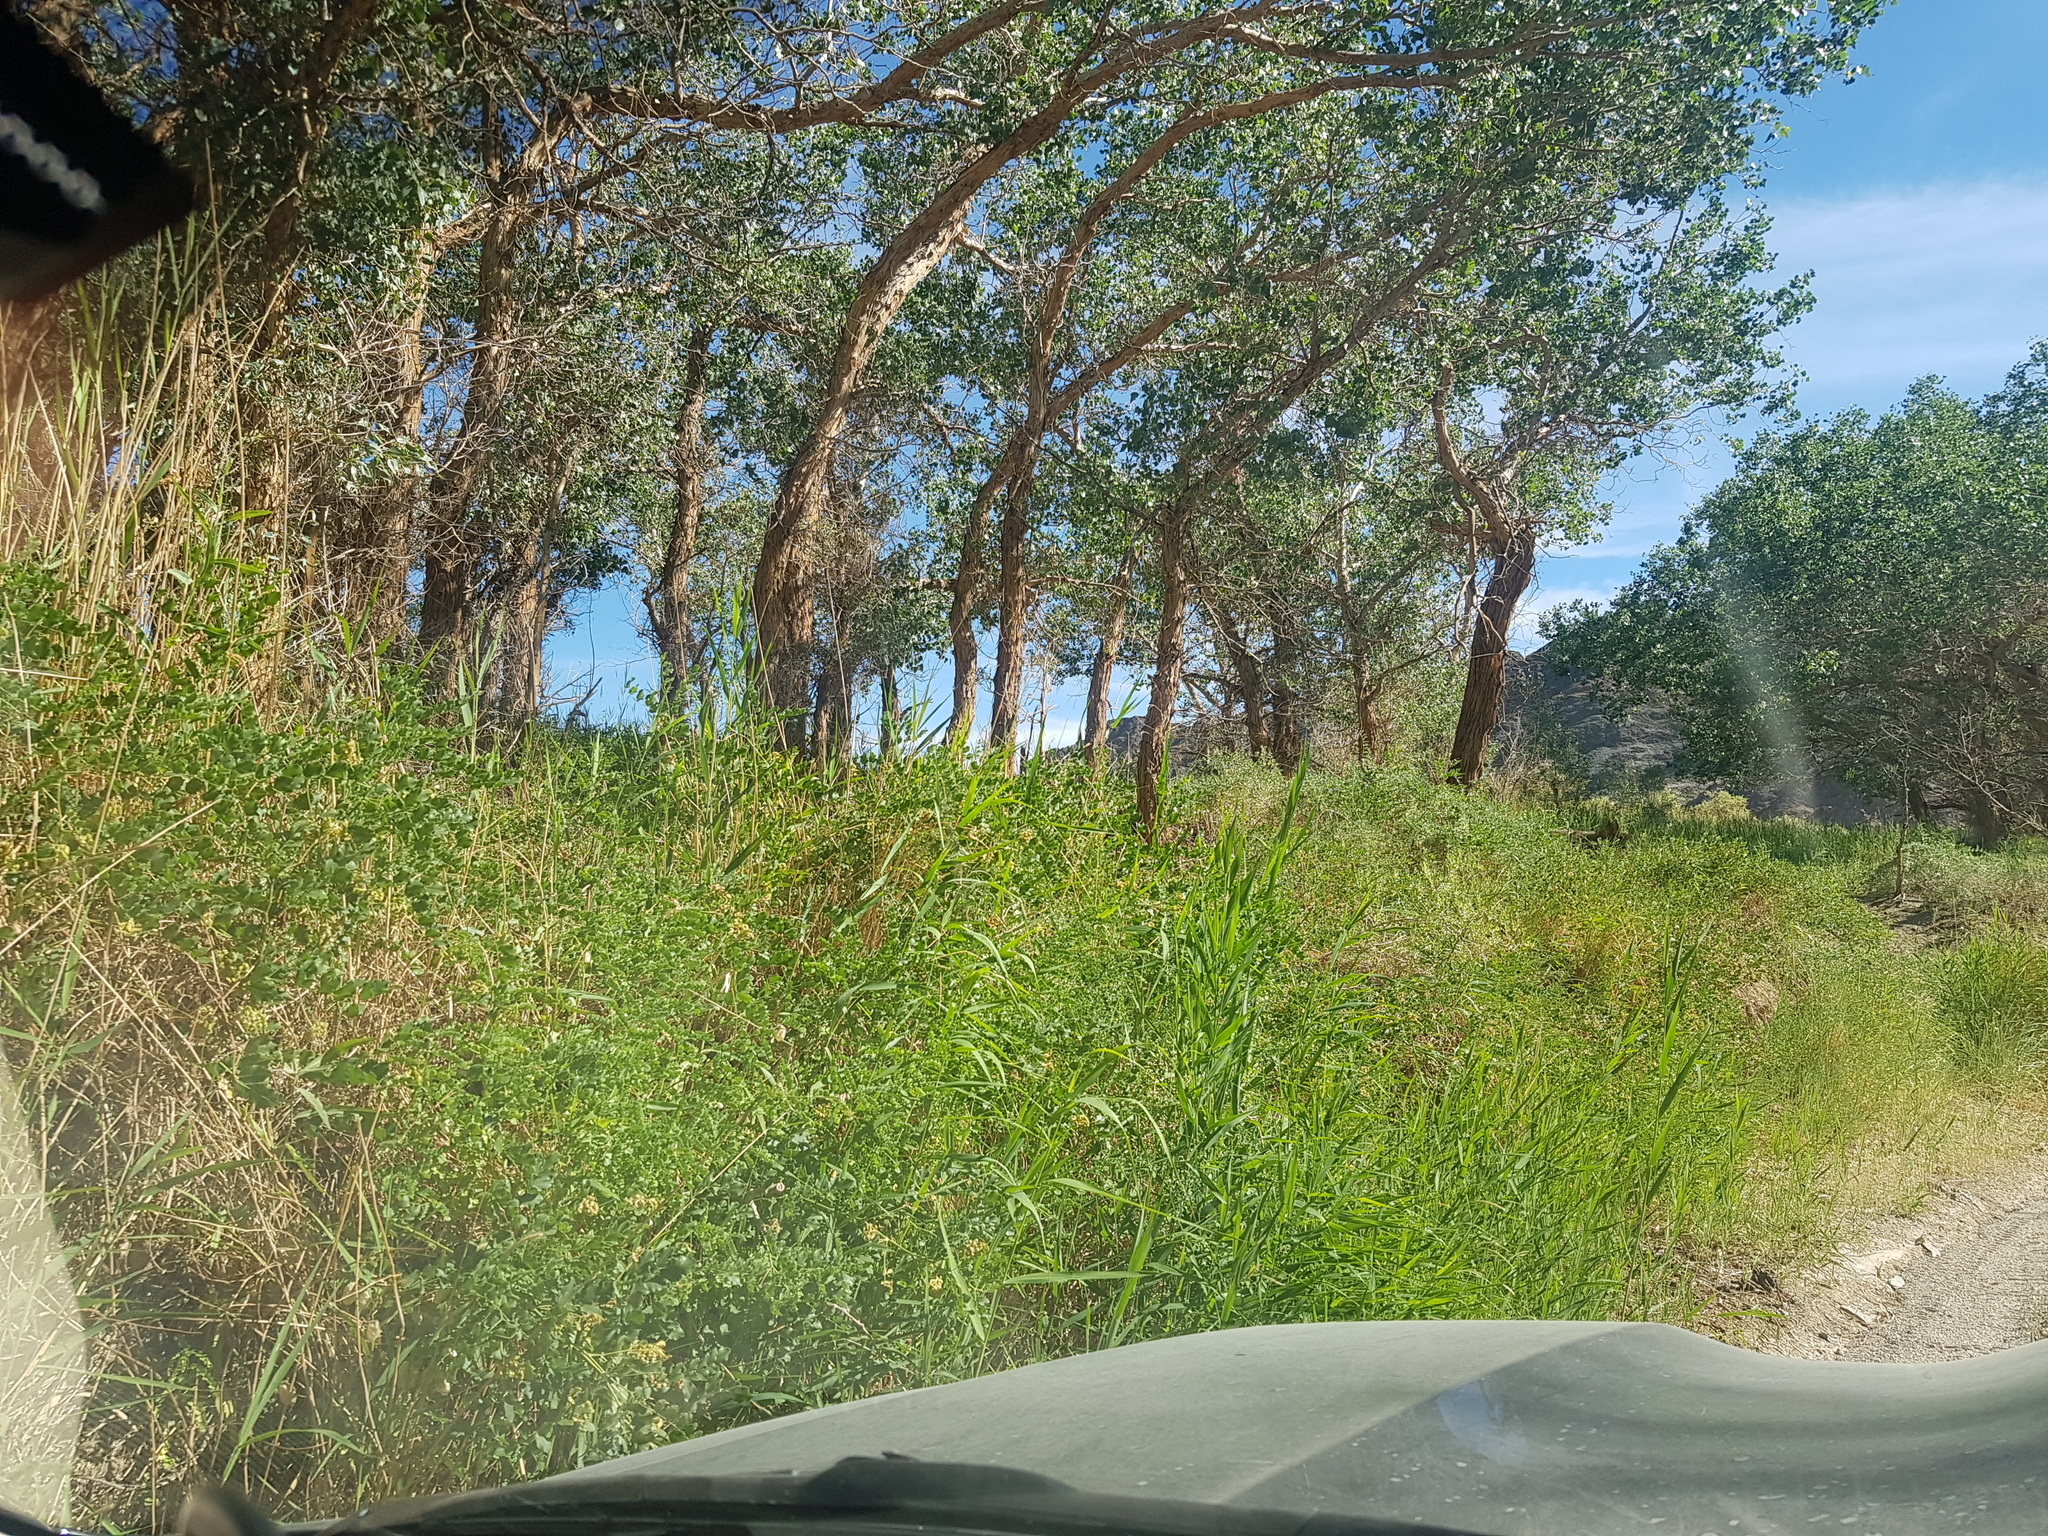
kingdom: Plantae
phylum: Tracheophyta
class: Liliopsida
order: Poales
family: Poaceae
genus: Phragmites
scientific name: Phragmites australis
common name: Common reed
